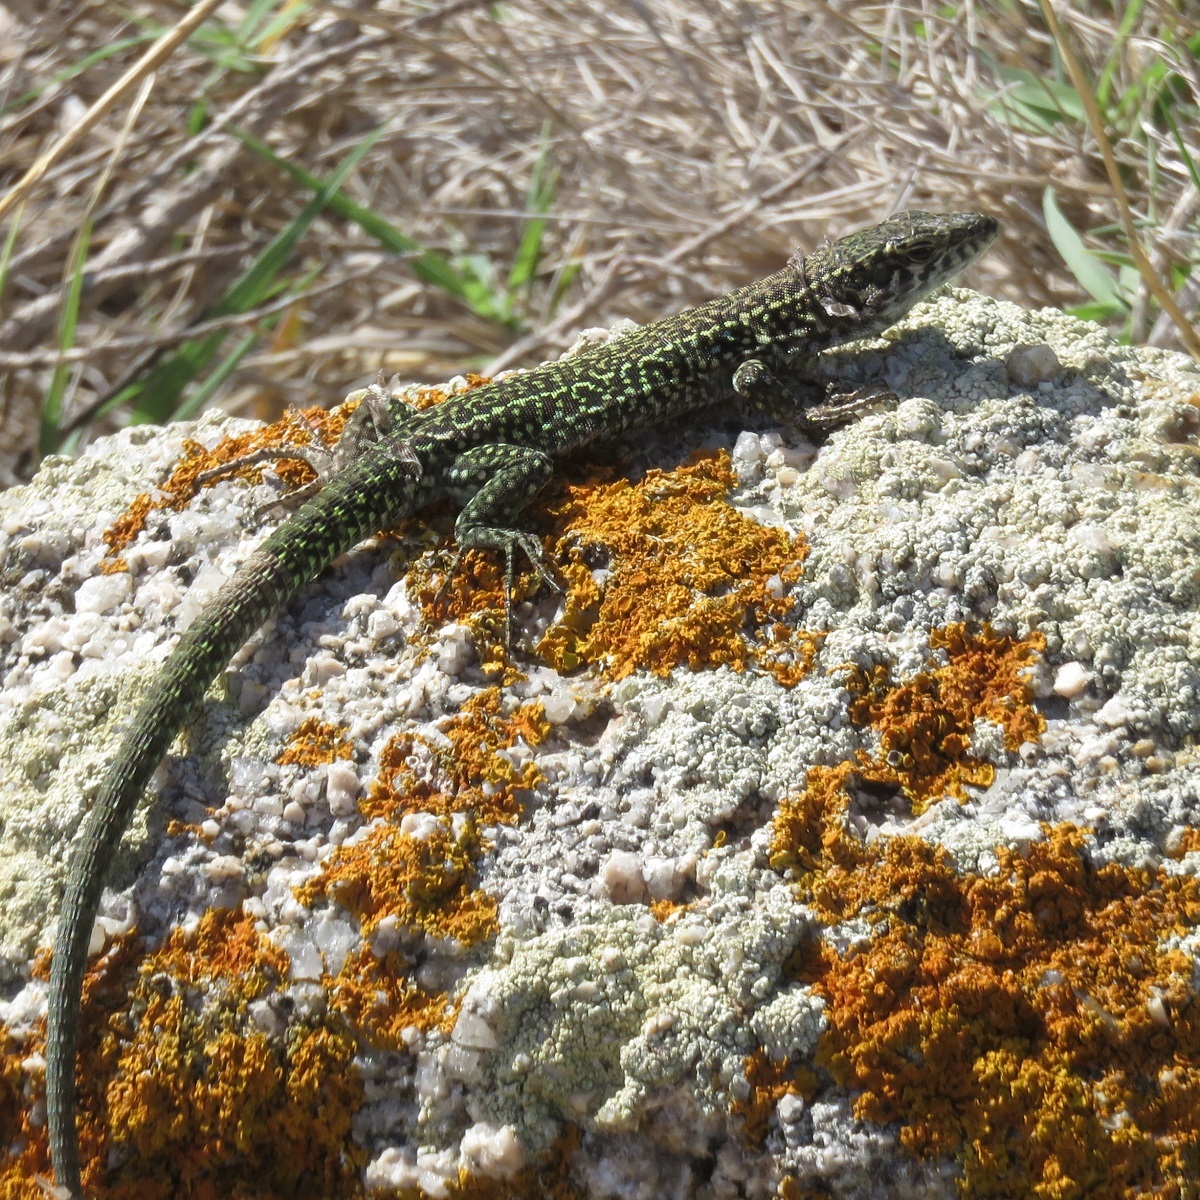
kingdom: Animalia
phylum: Chordata
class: Squamata
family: Lacertidae
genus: Podarcis
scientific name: Podarcis tiliguerta
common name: Tyrrhenian wall lizard
